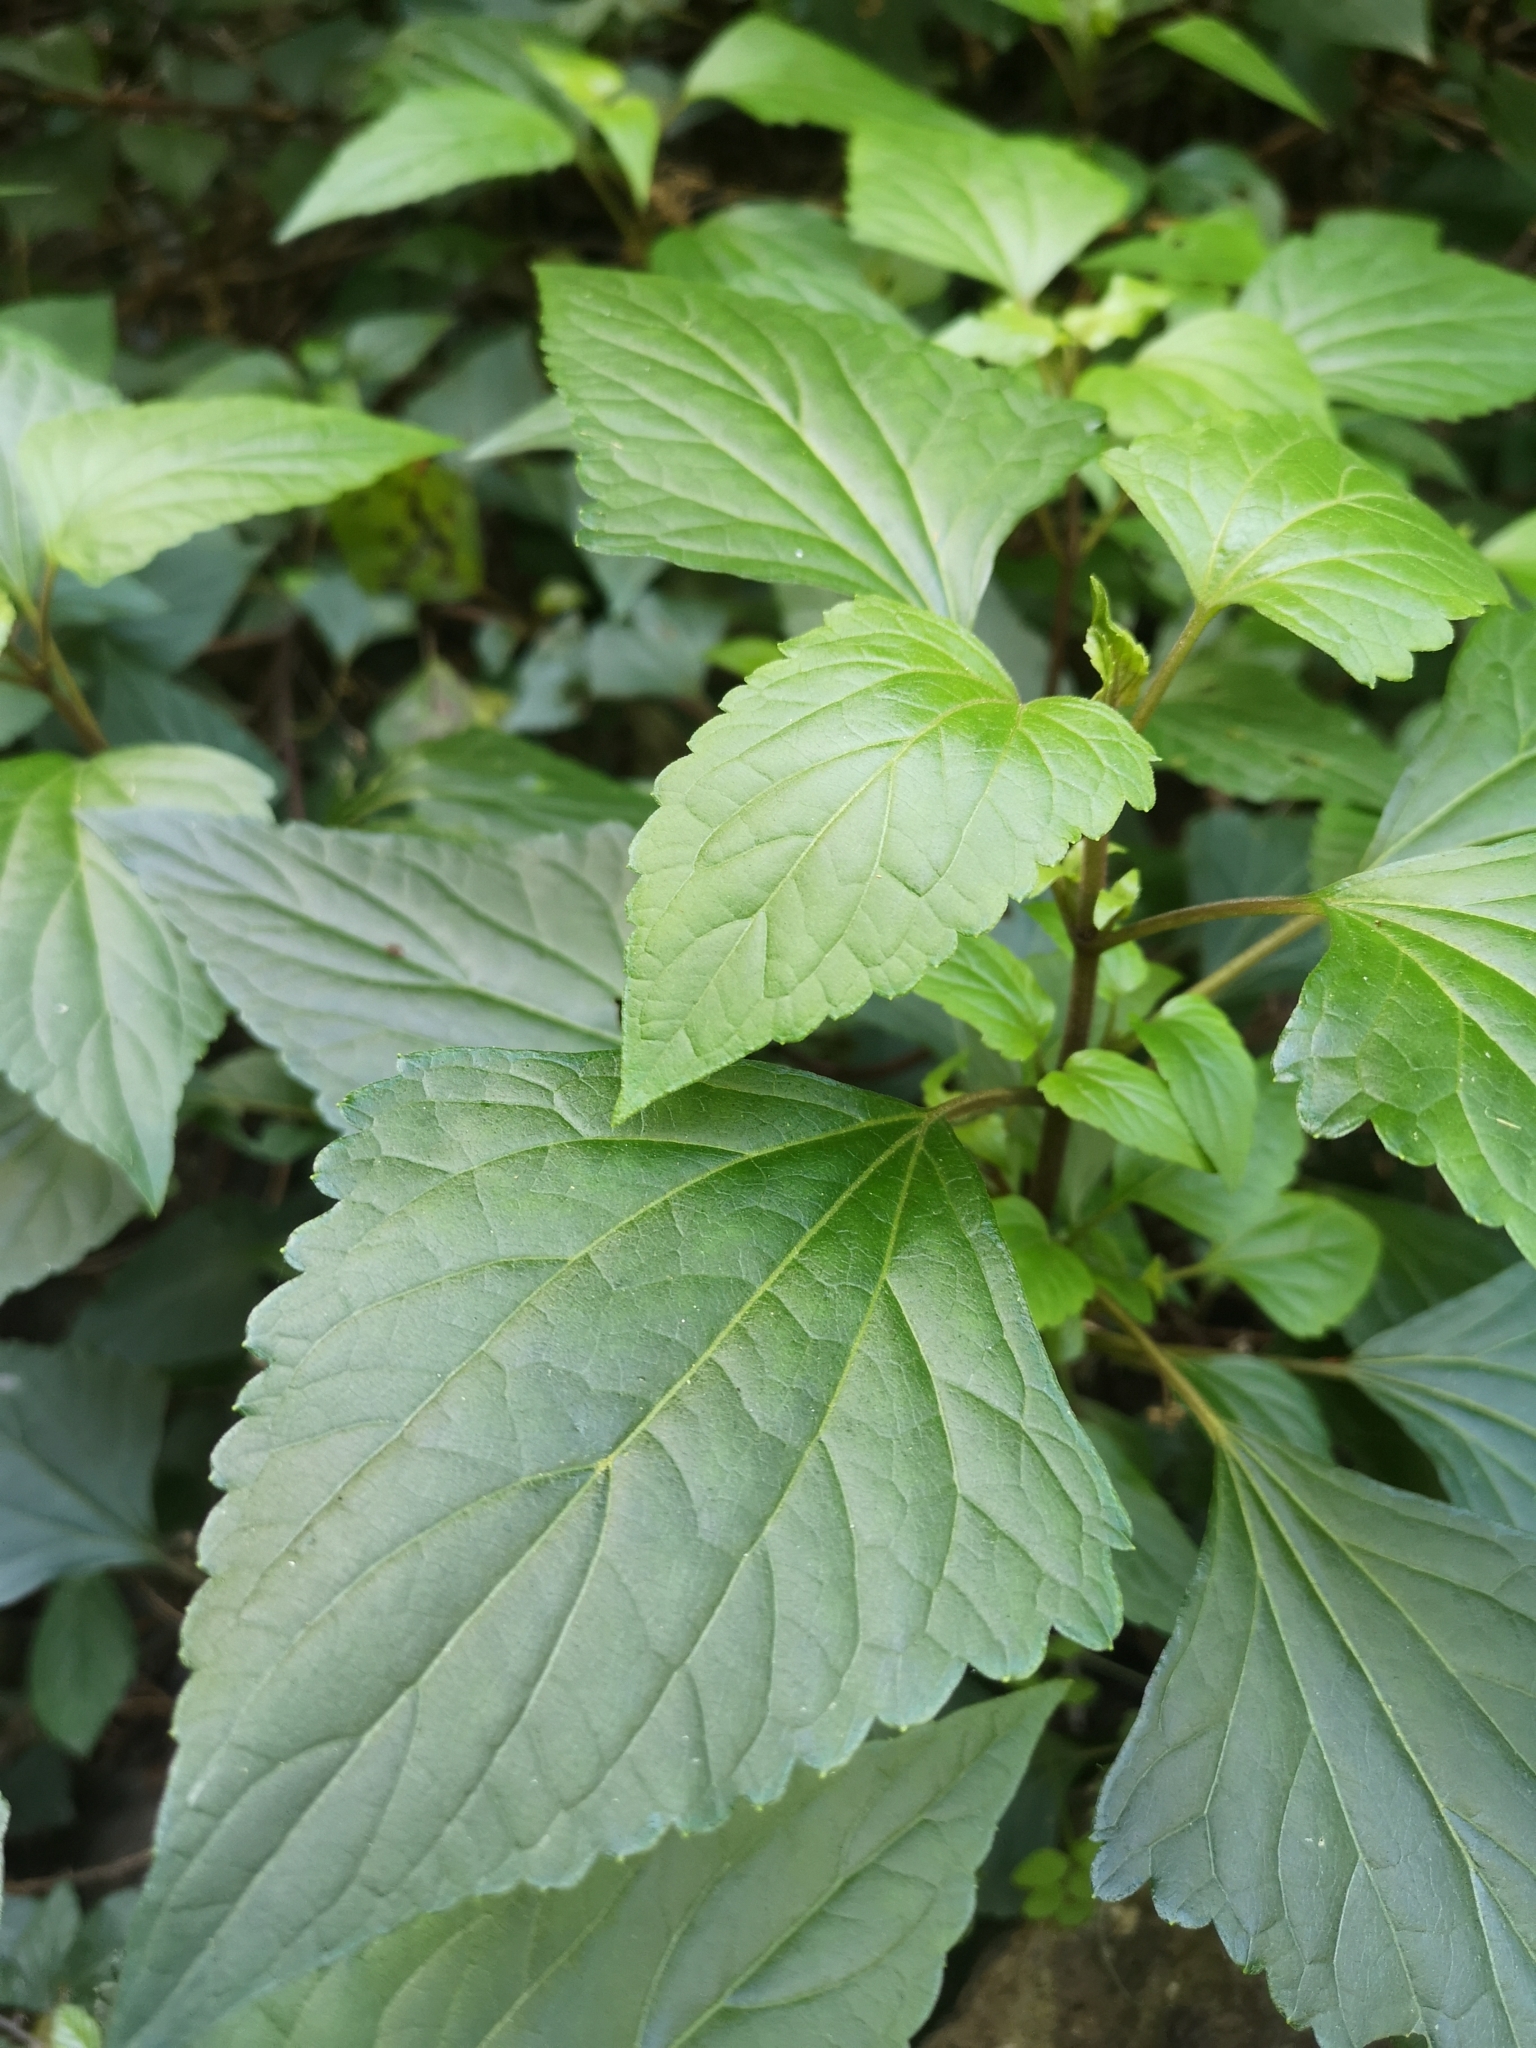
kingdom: Plantae
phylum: Tracheophyta
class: Magnoliopsida
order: Asterales
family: Asteraceae
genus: Ageratina
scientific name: Ageratina adenophora
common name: Sticky snakeroot
